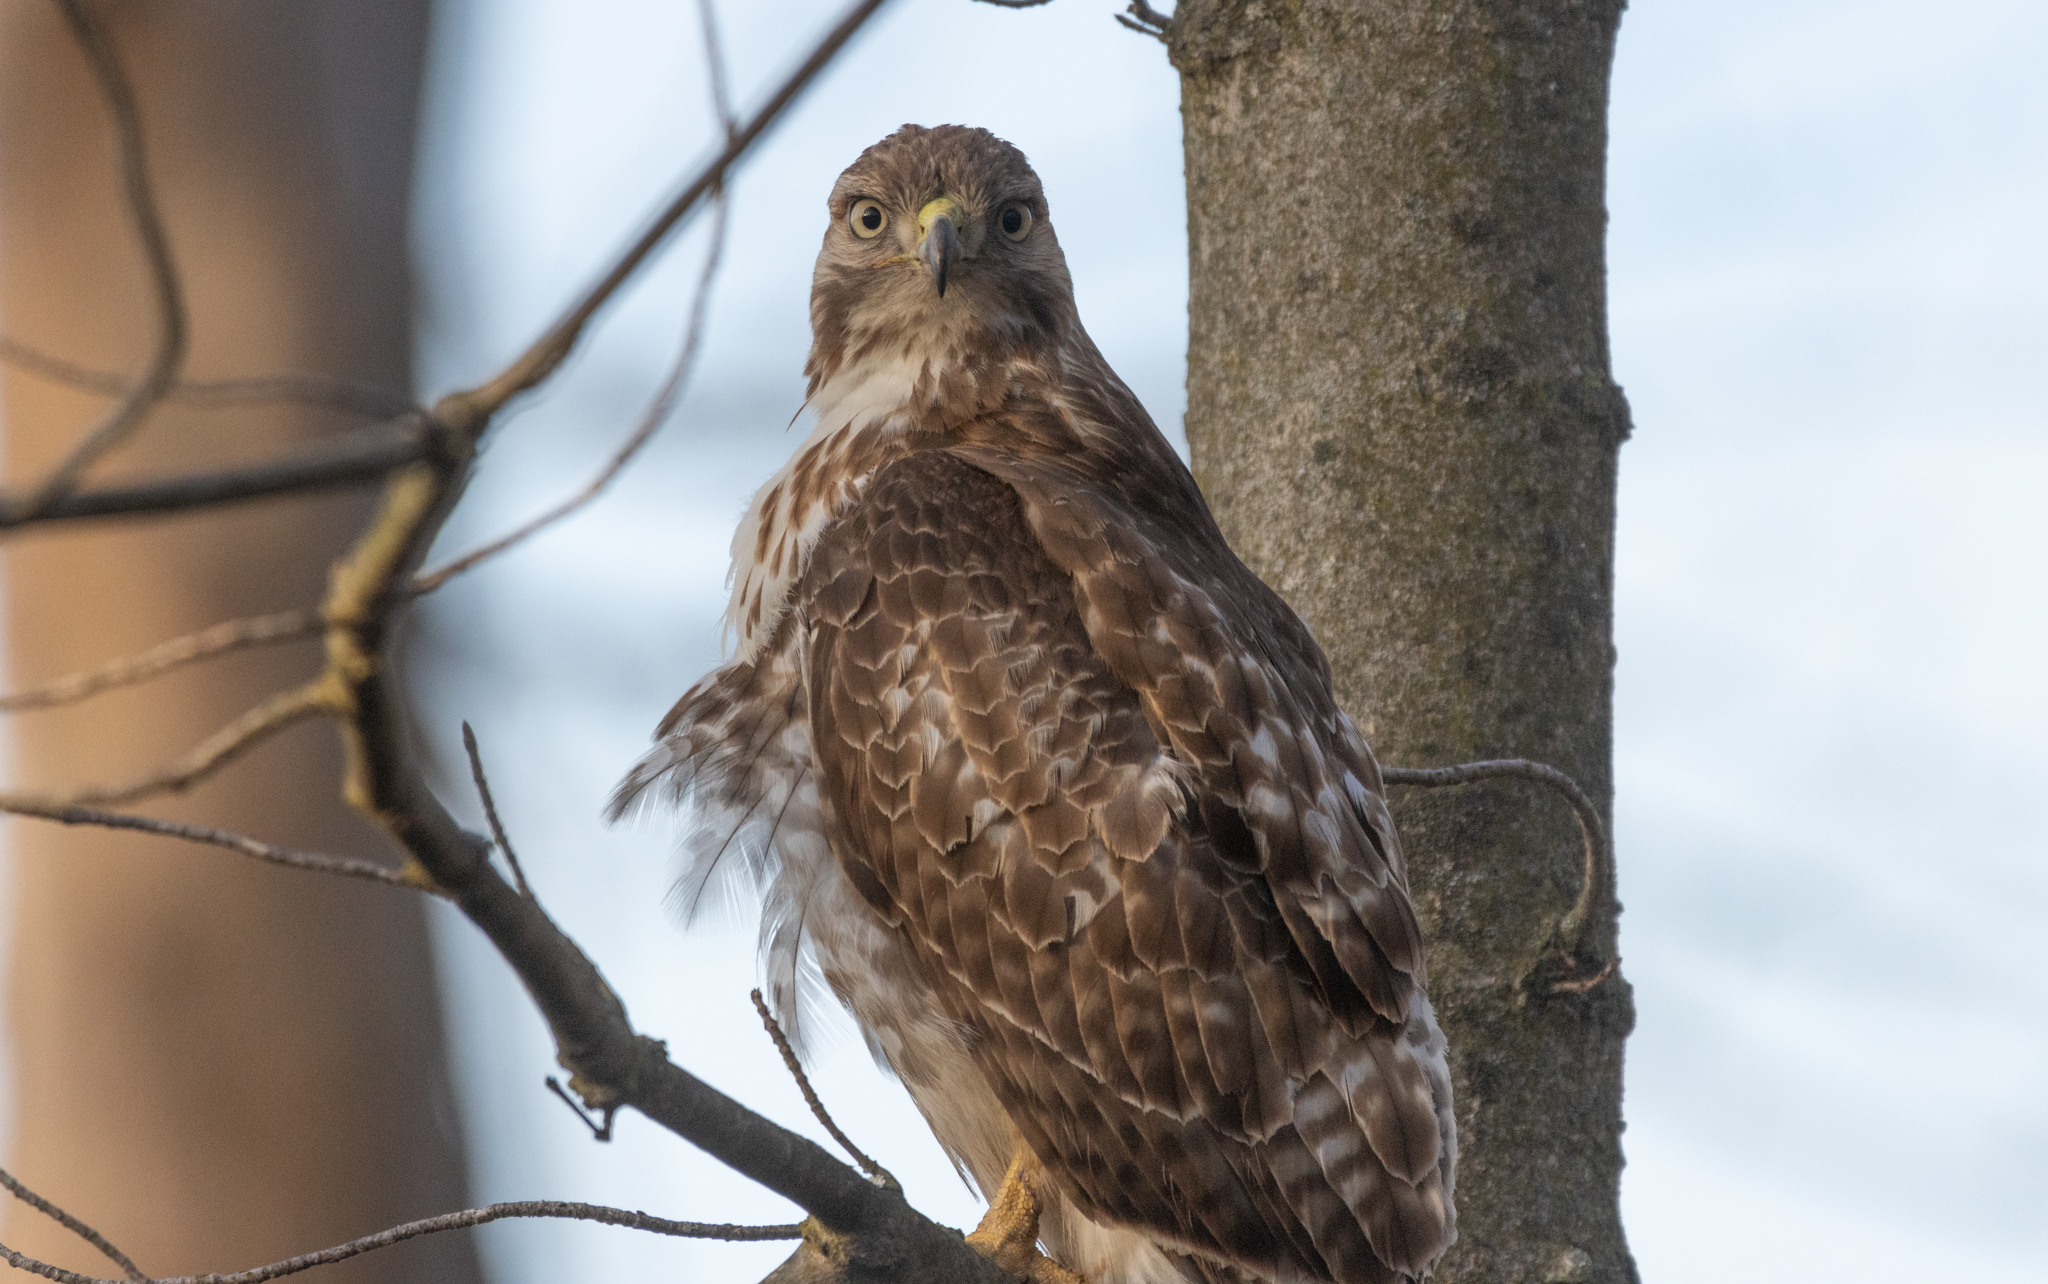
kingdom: Animalia
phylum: Chordata
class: Aves
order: Accipitriformes
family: Accipitridae
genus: Buteo
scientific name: Buteo jamaicensis
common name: Red-tailed hawk
